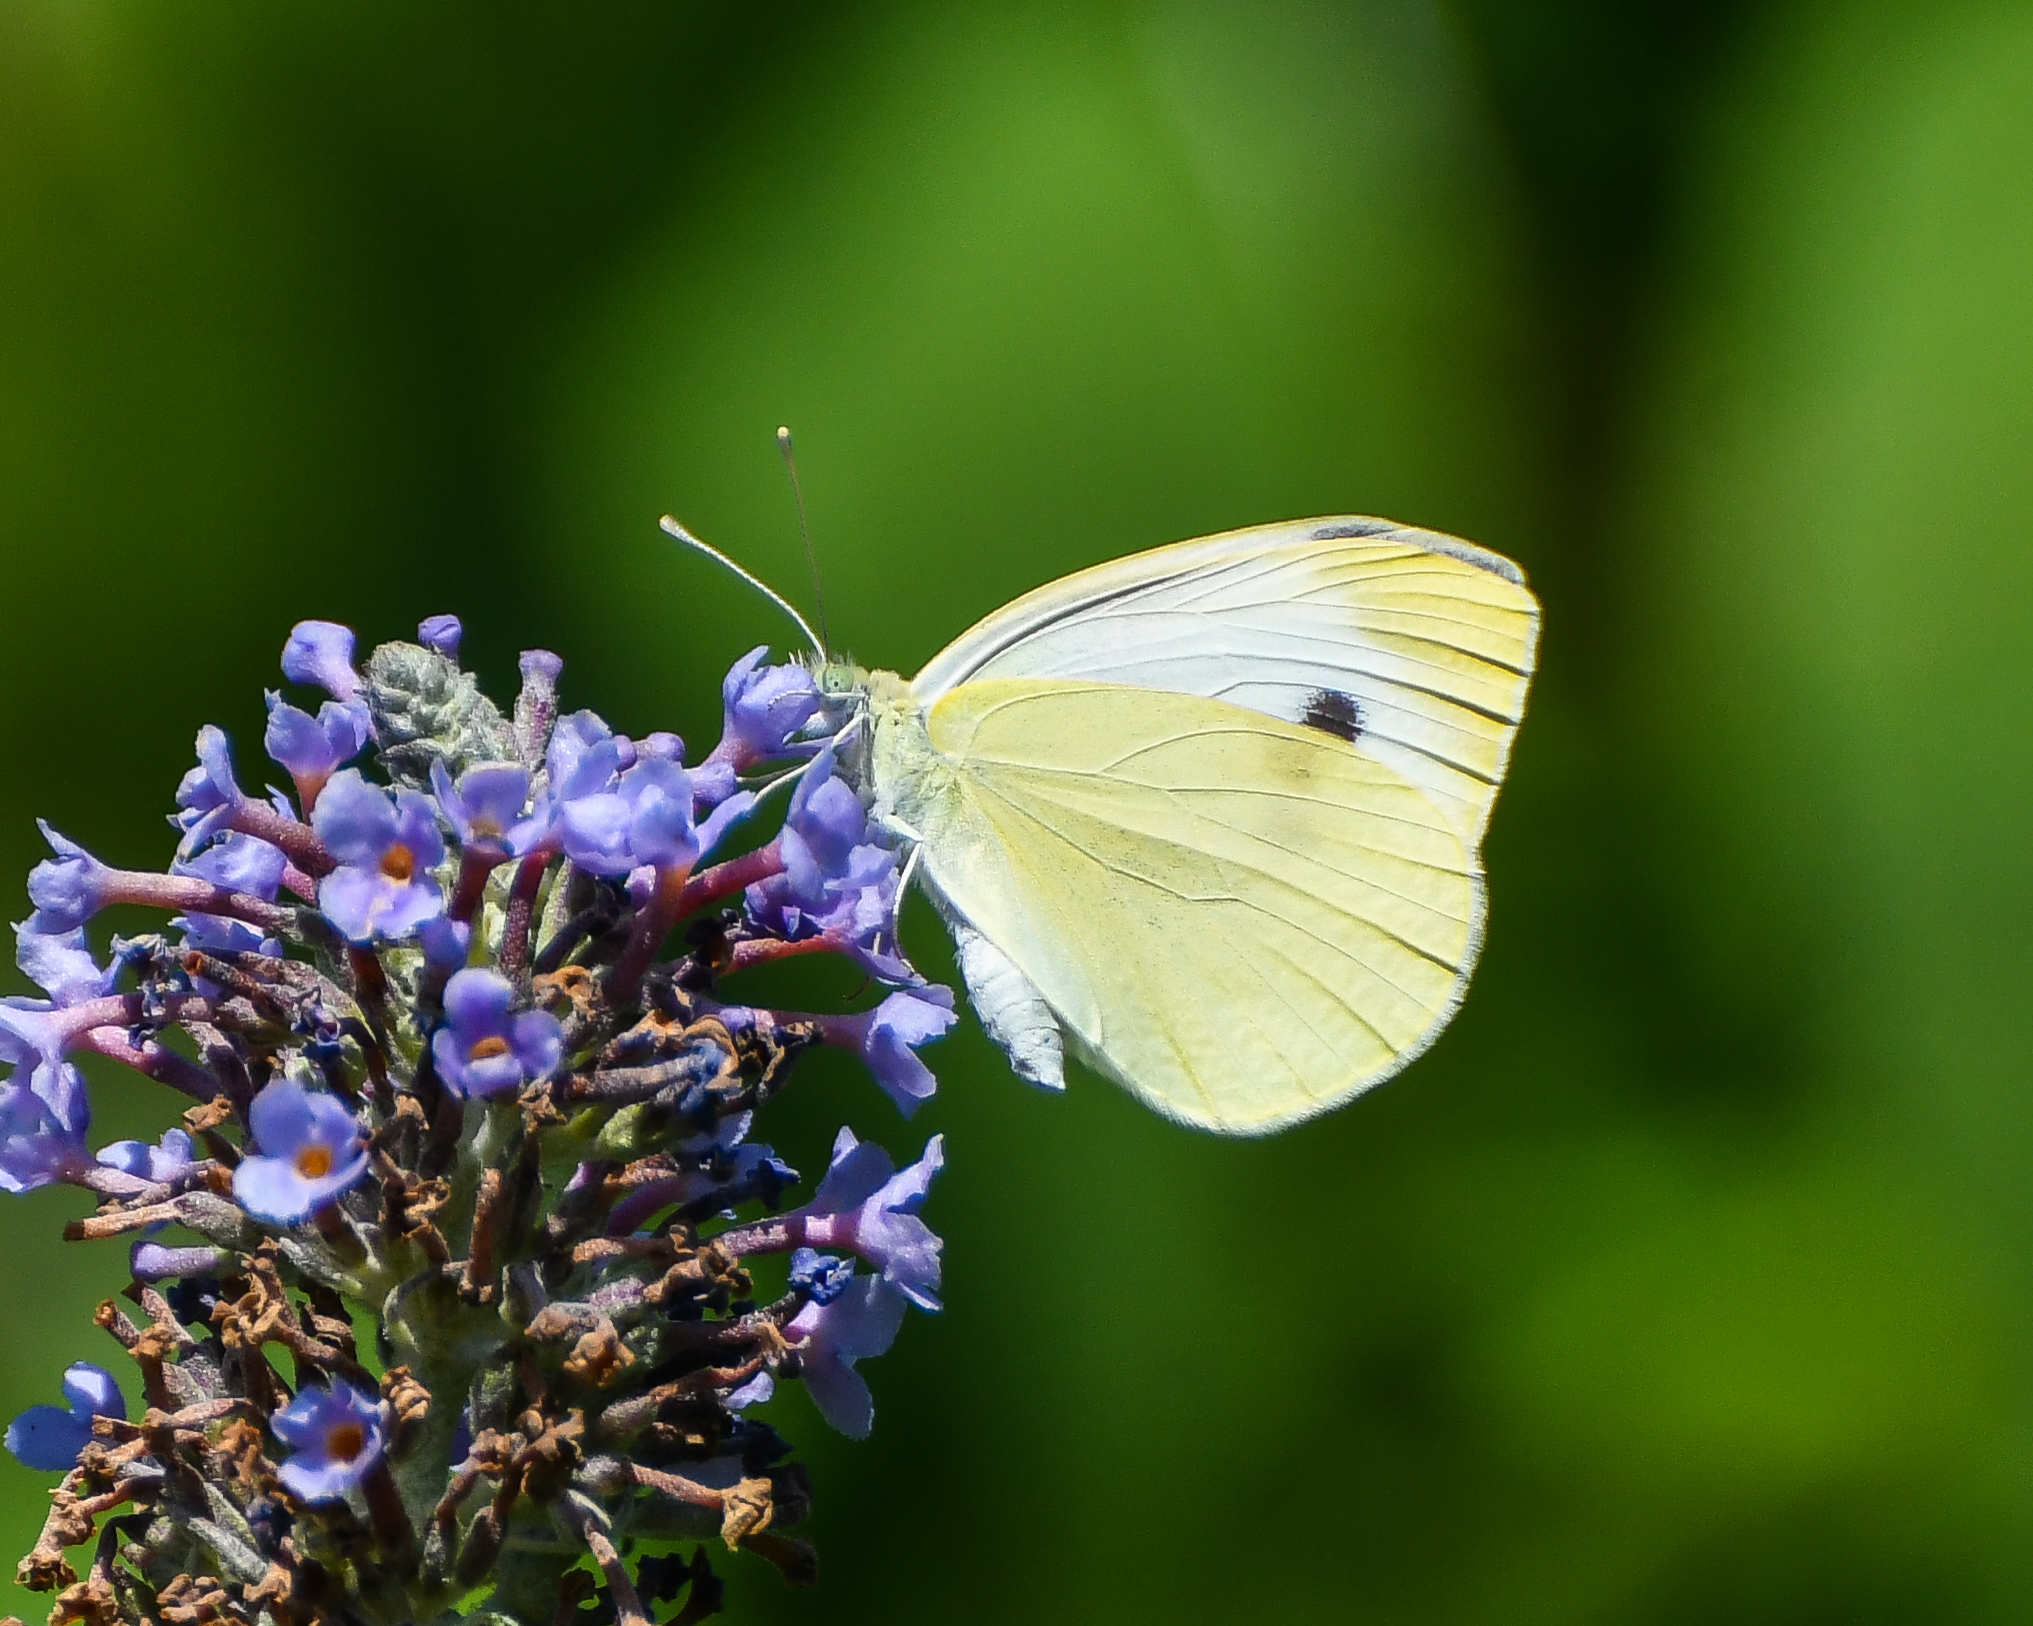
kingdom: Animalia
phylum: Arthropoda
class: Insecta
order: Lepidoptera
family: Pieridae
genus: Pieris
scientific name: Pieris rapae
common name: Small white
